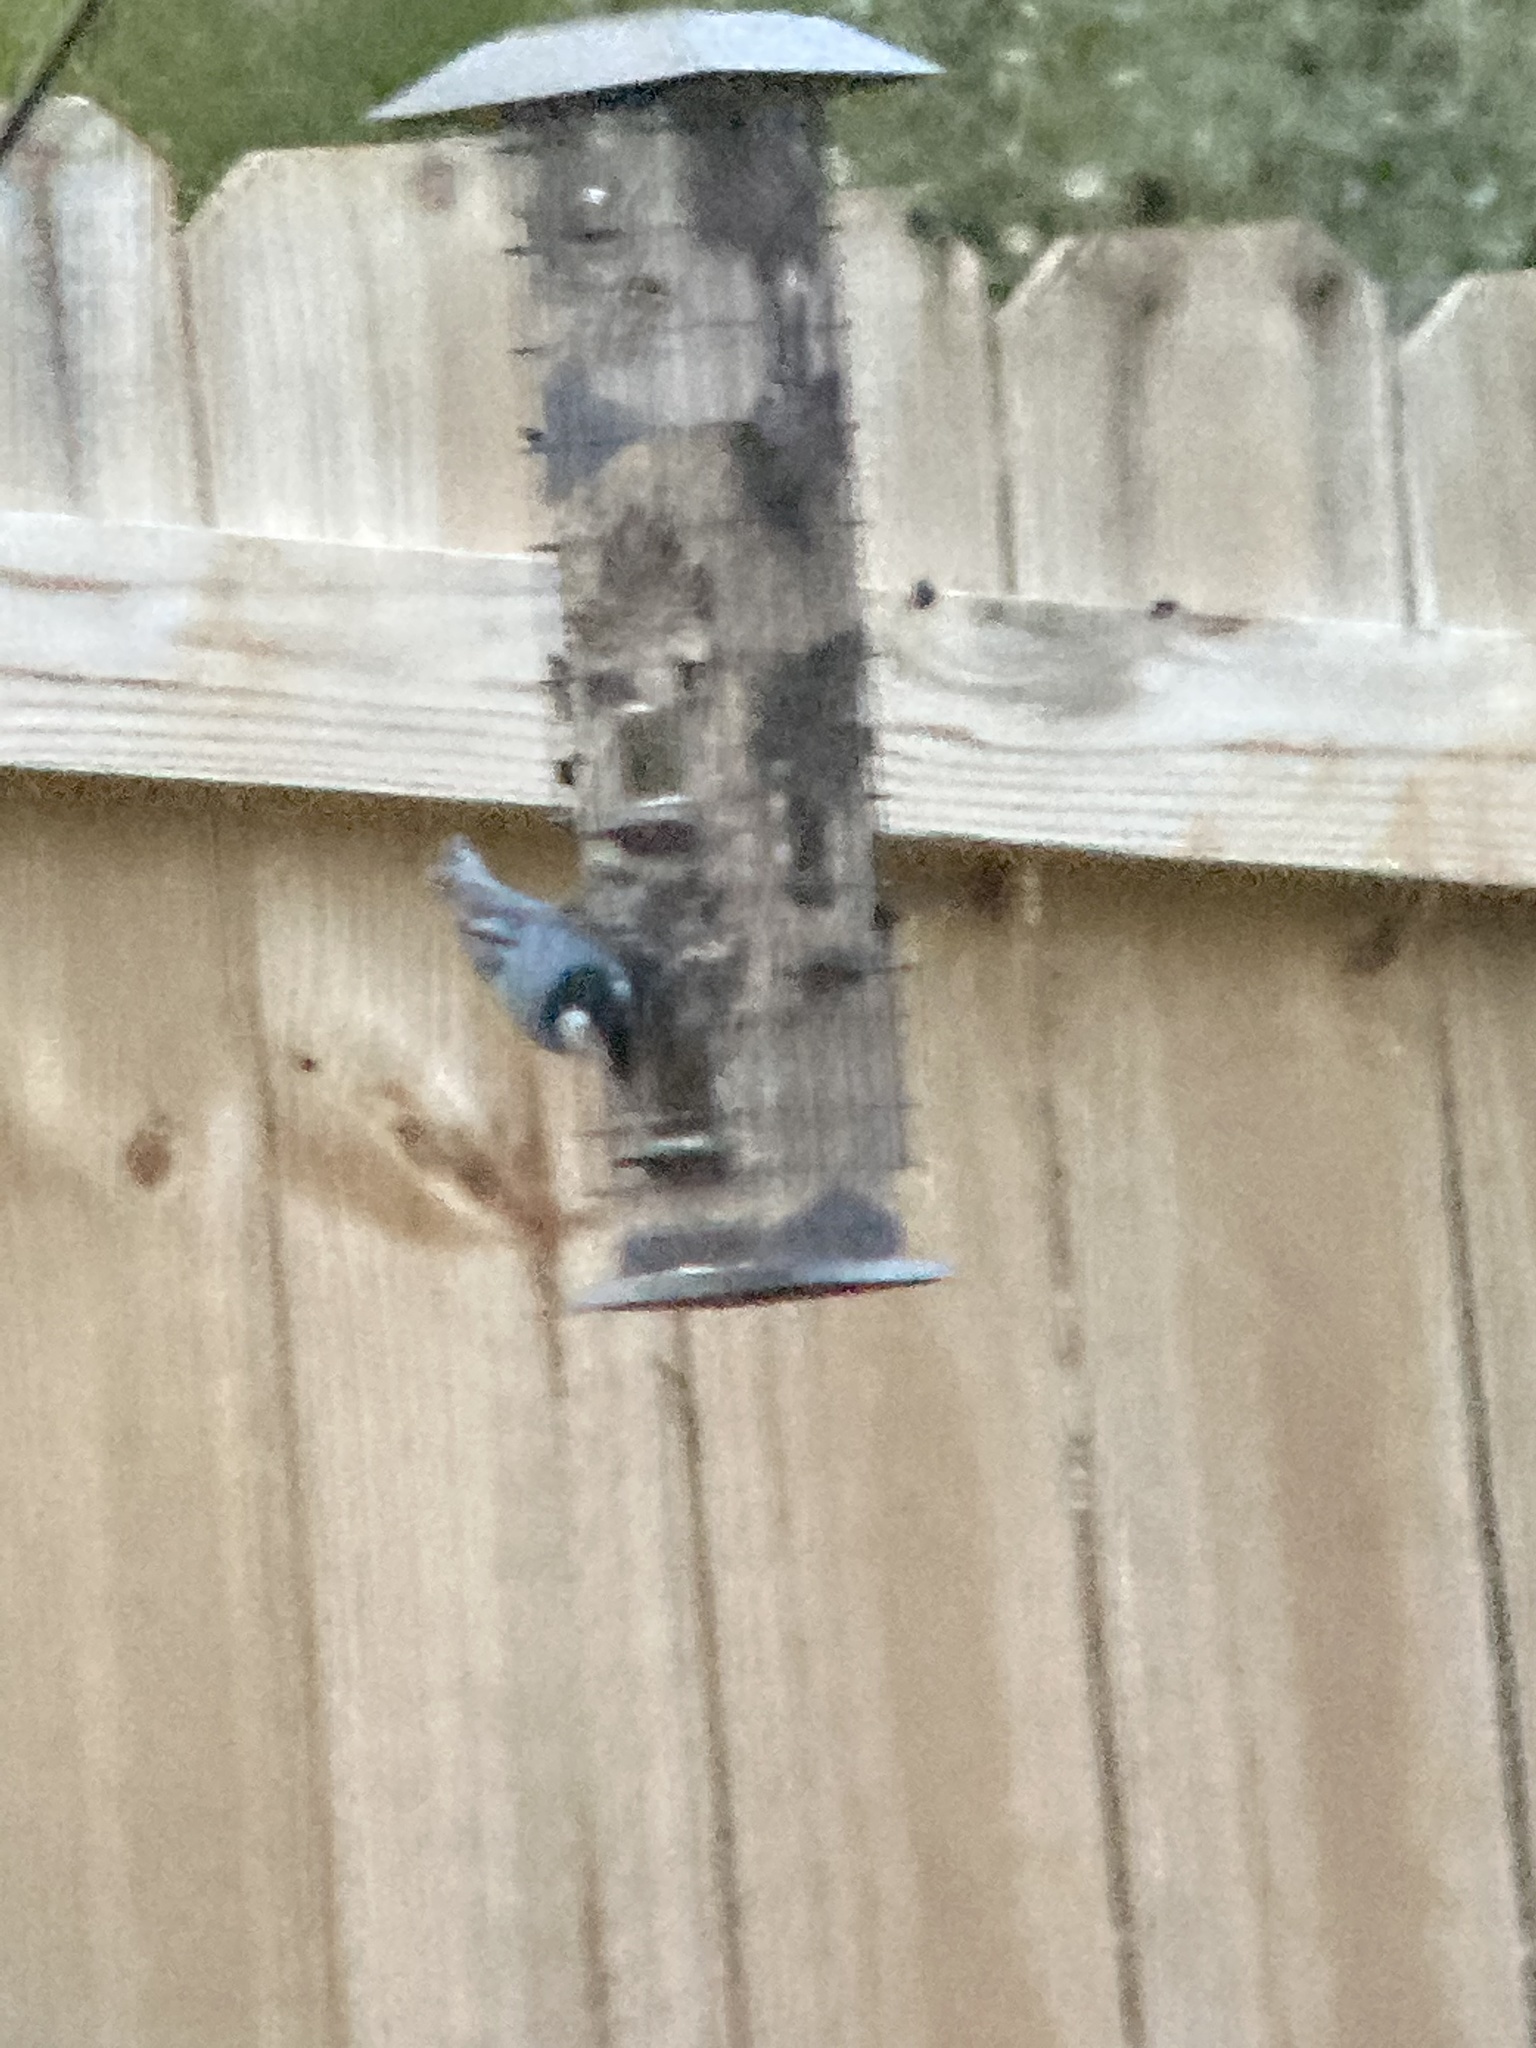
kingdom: Animalia
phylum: Chordata
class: Aves
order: Passeriformes
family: Sittidae
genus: Sitta
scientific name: Sitta carolinensis
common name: White-breasted nuthatch
